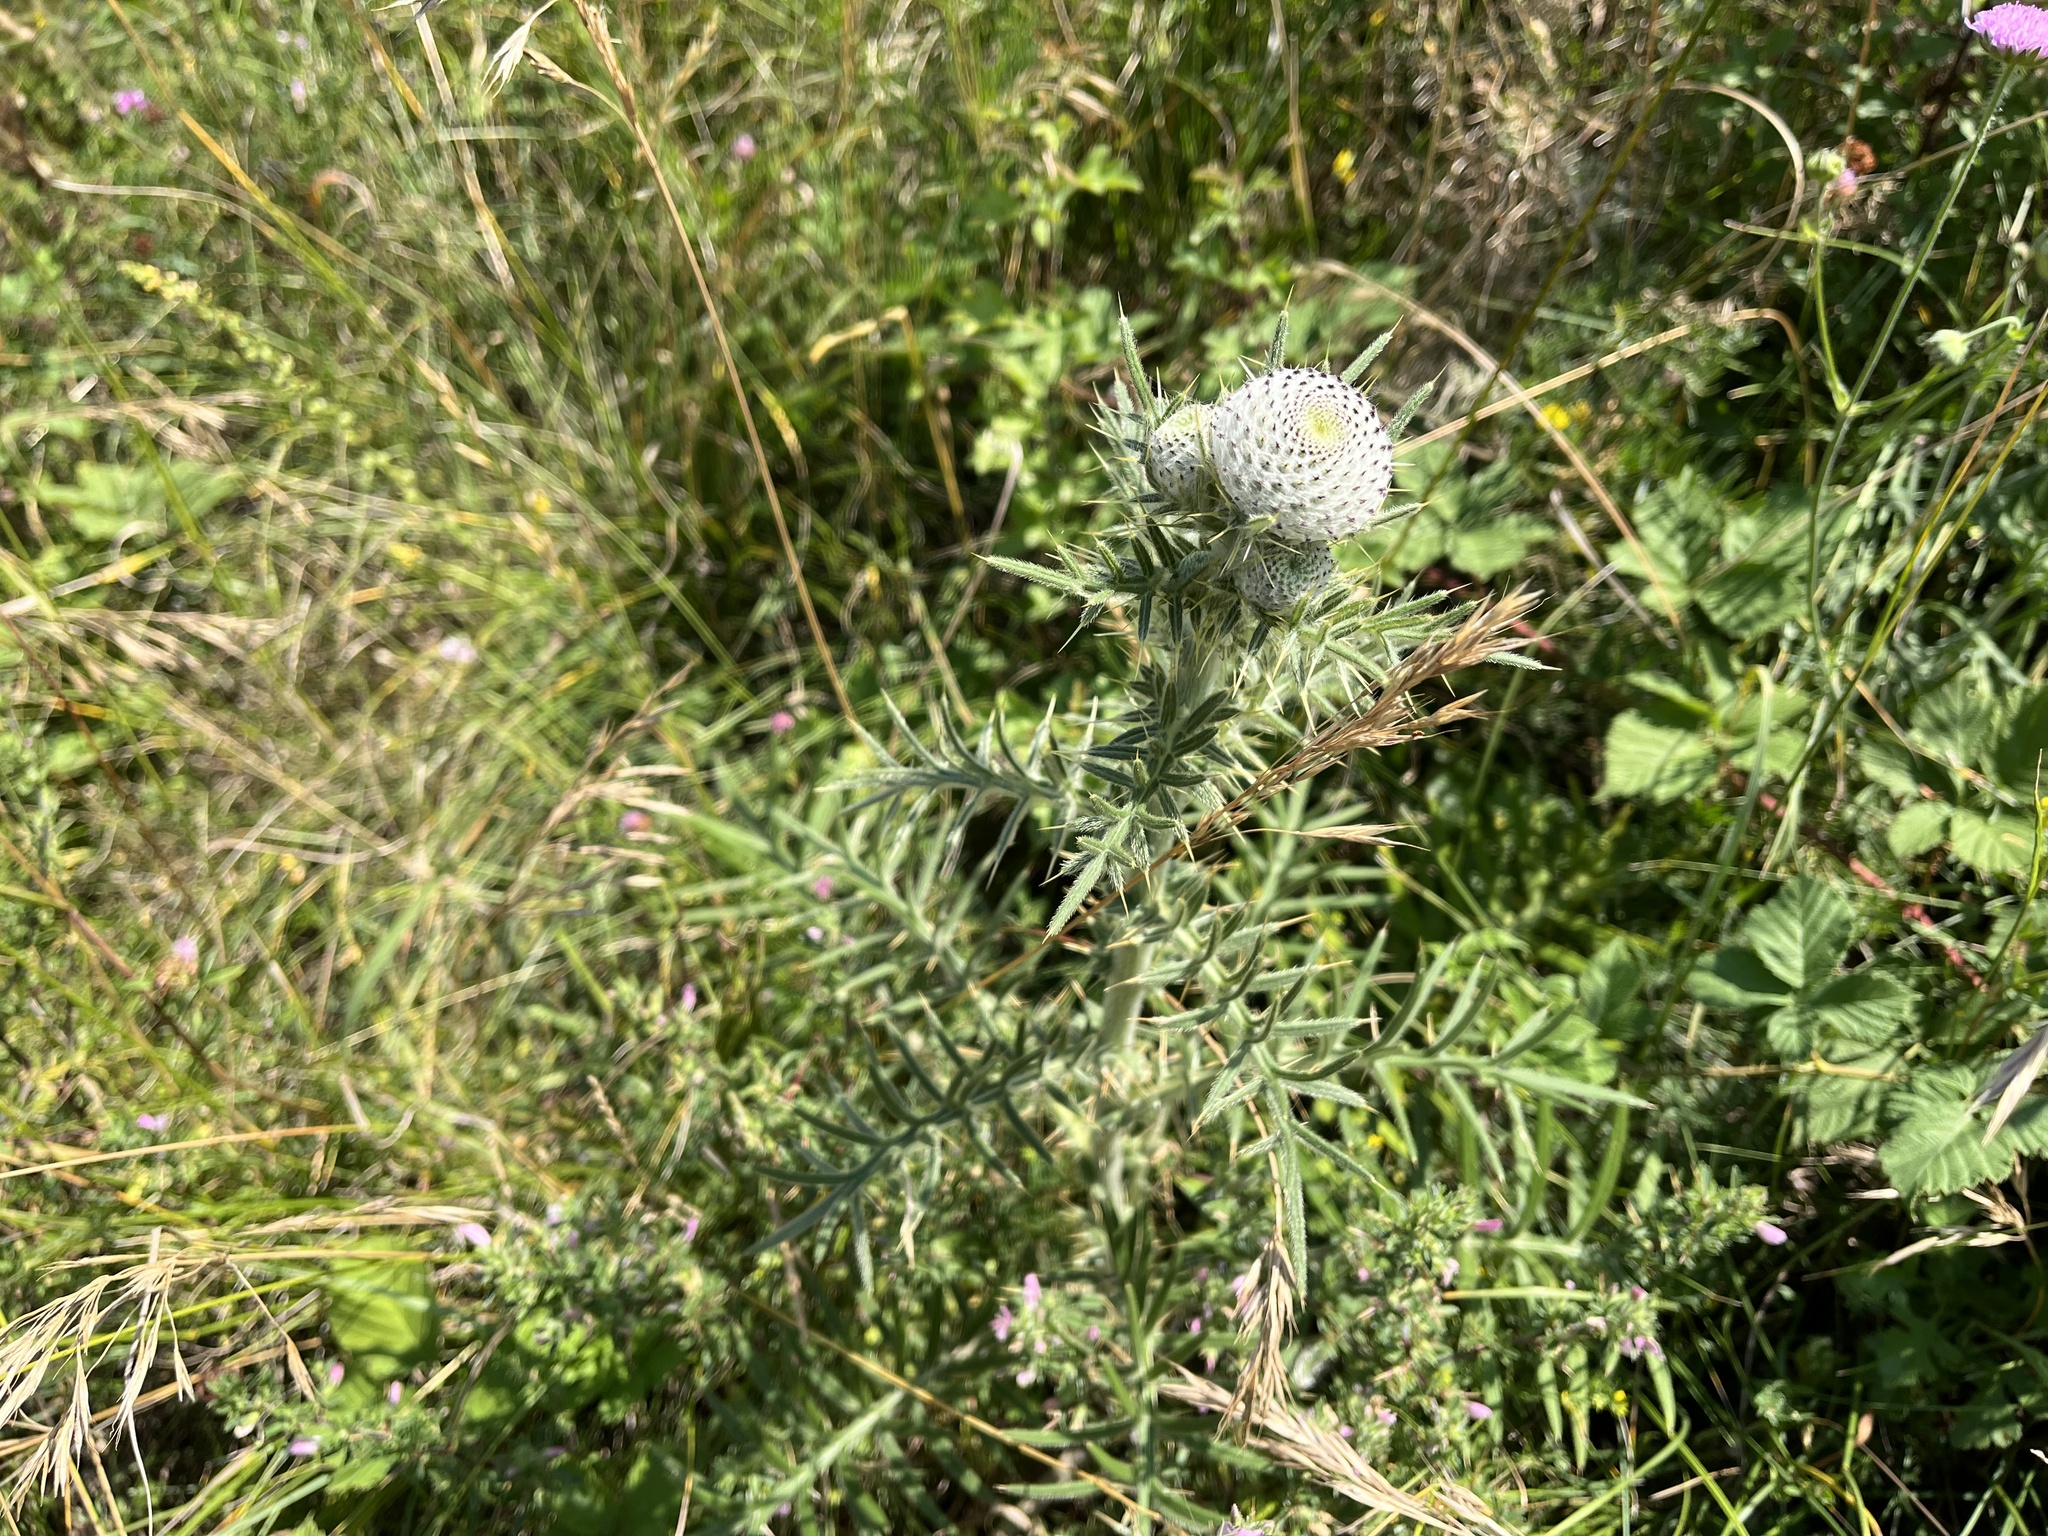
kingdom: Plantae
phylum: Tracheophyta
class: Magnoliopsida
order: Asterales
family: Asteraceae
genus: Lophiolepis
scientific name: Lophiolepis eriophora
